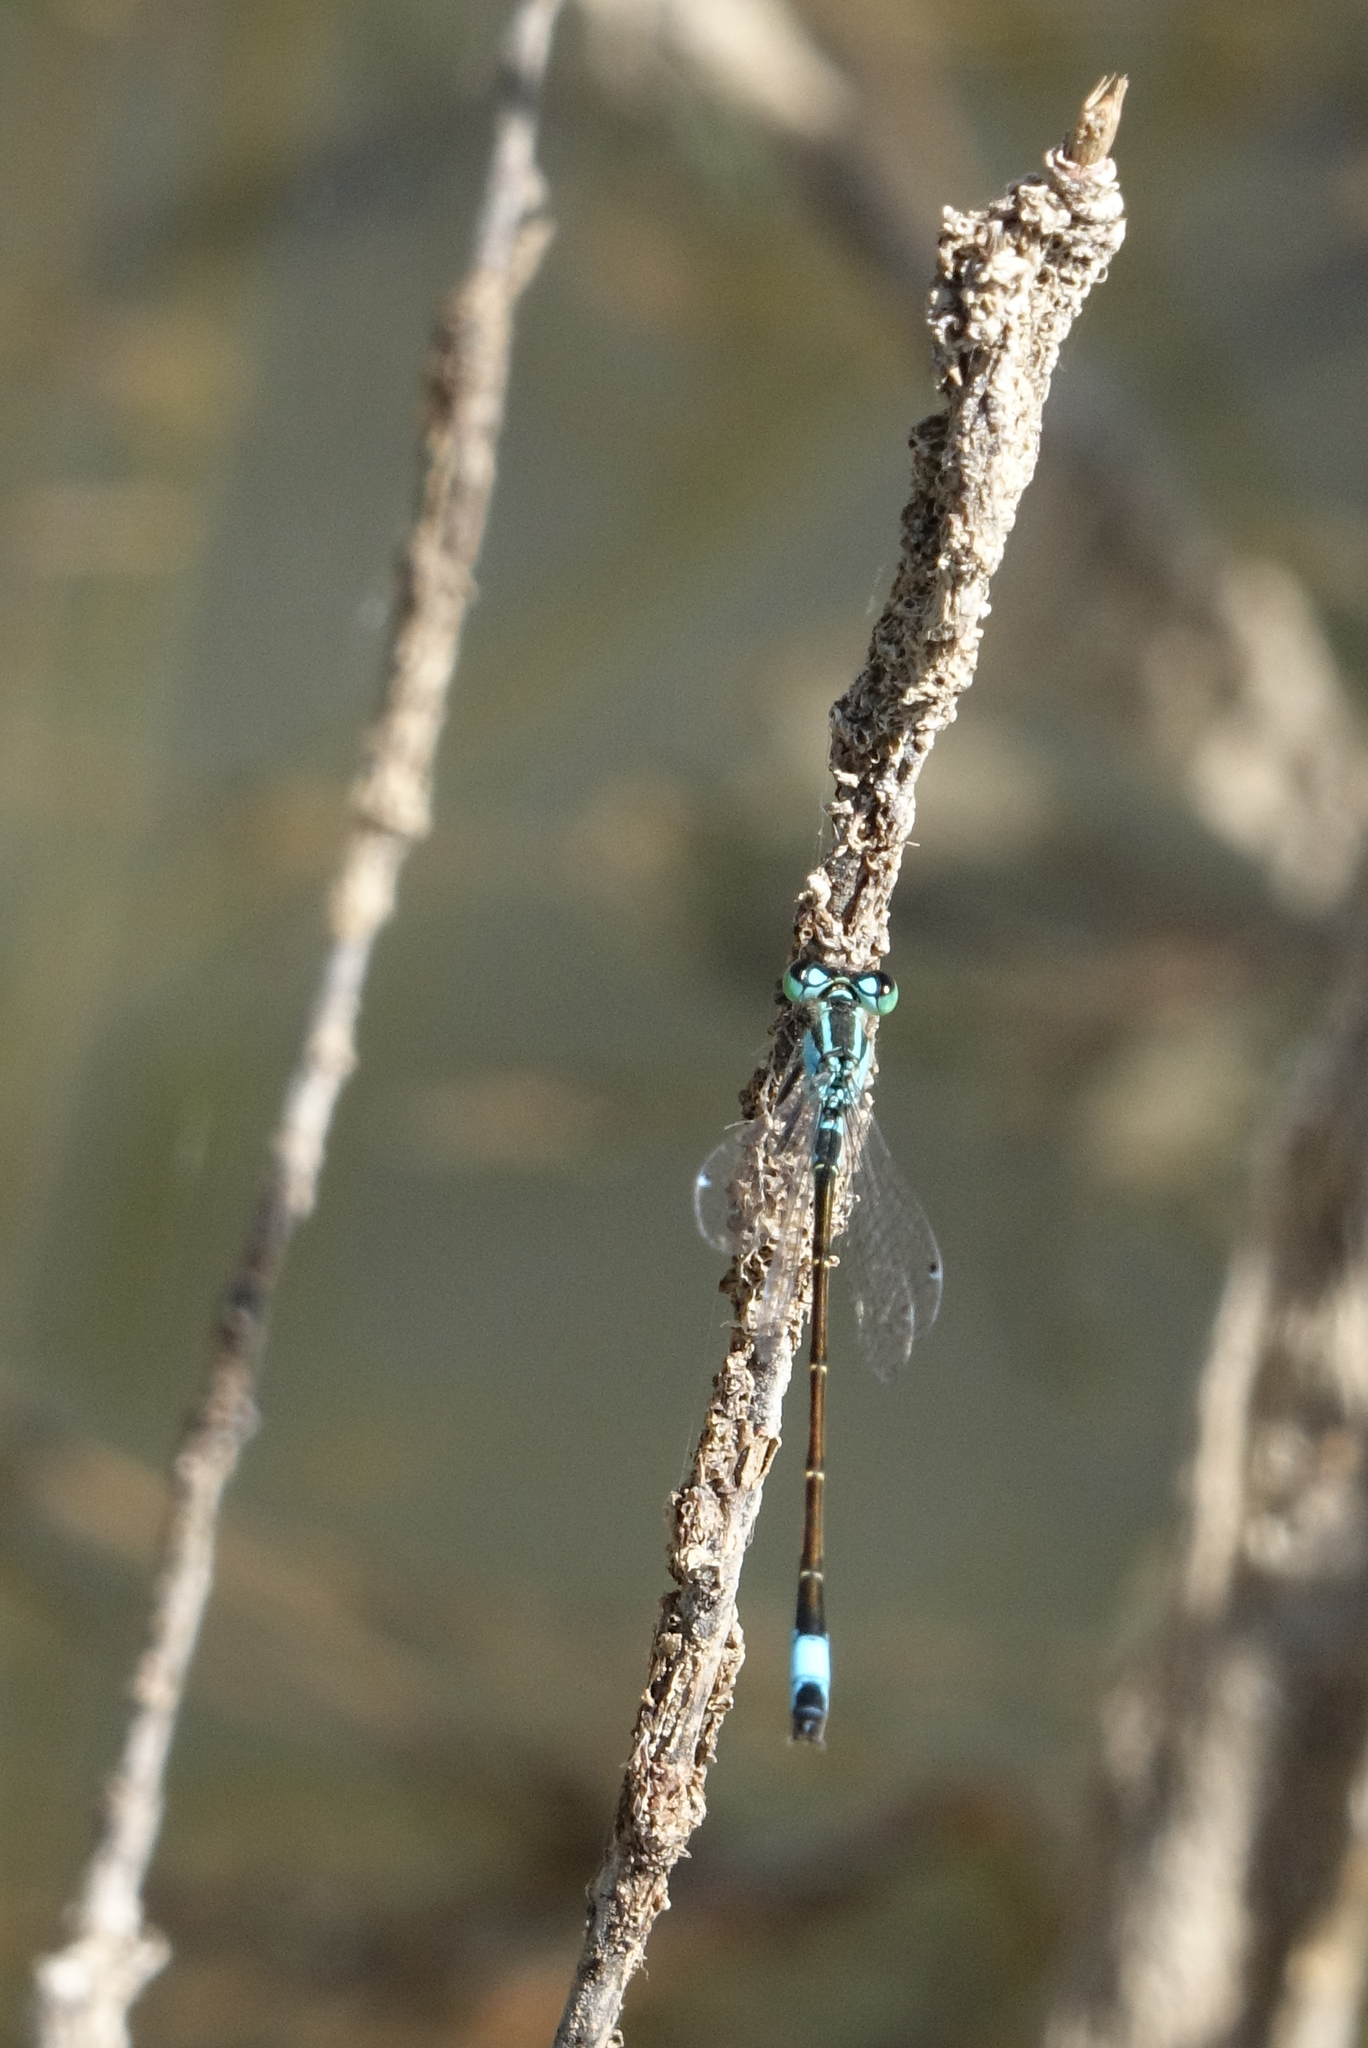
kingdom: Animalia
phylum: Arthropoda
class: Insecta
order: Odonata
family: Coenagrionidae
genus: Ischnura
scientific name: Ischnura elegans
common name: Blue-tailed damselfly
